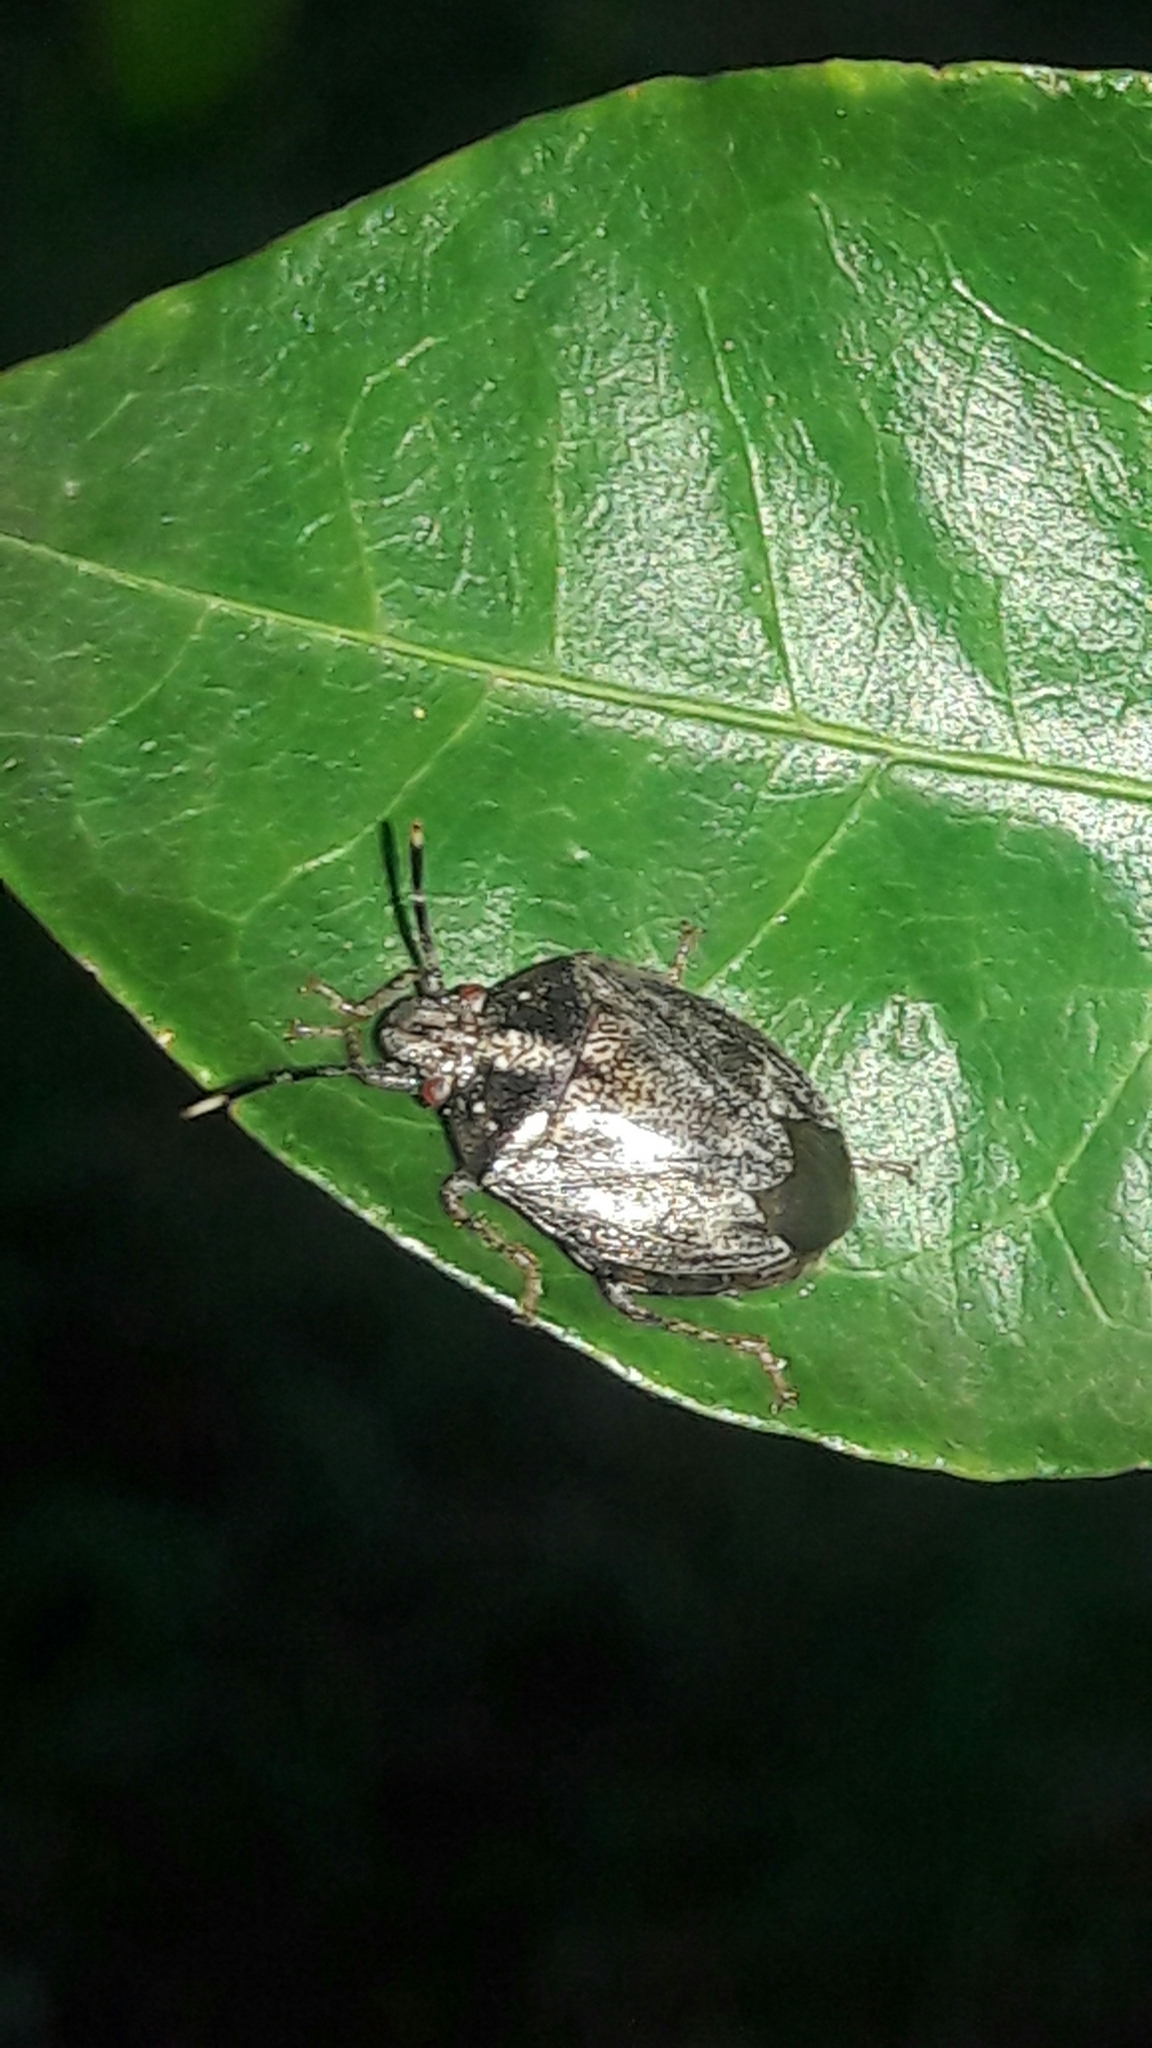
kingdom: Animalia
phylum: Arthropoda
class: Insecta
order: Hemiptera
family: Pentatomidae
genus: Antiteuchus
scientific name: Antiteuchus tripterus
